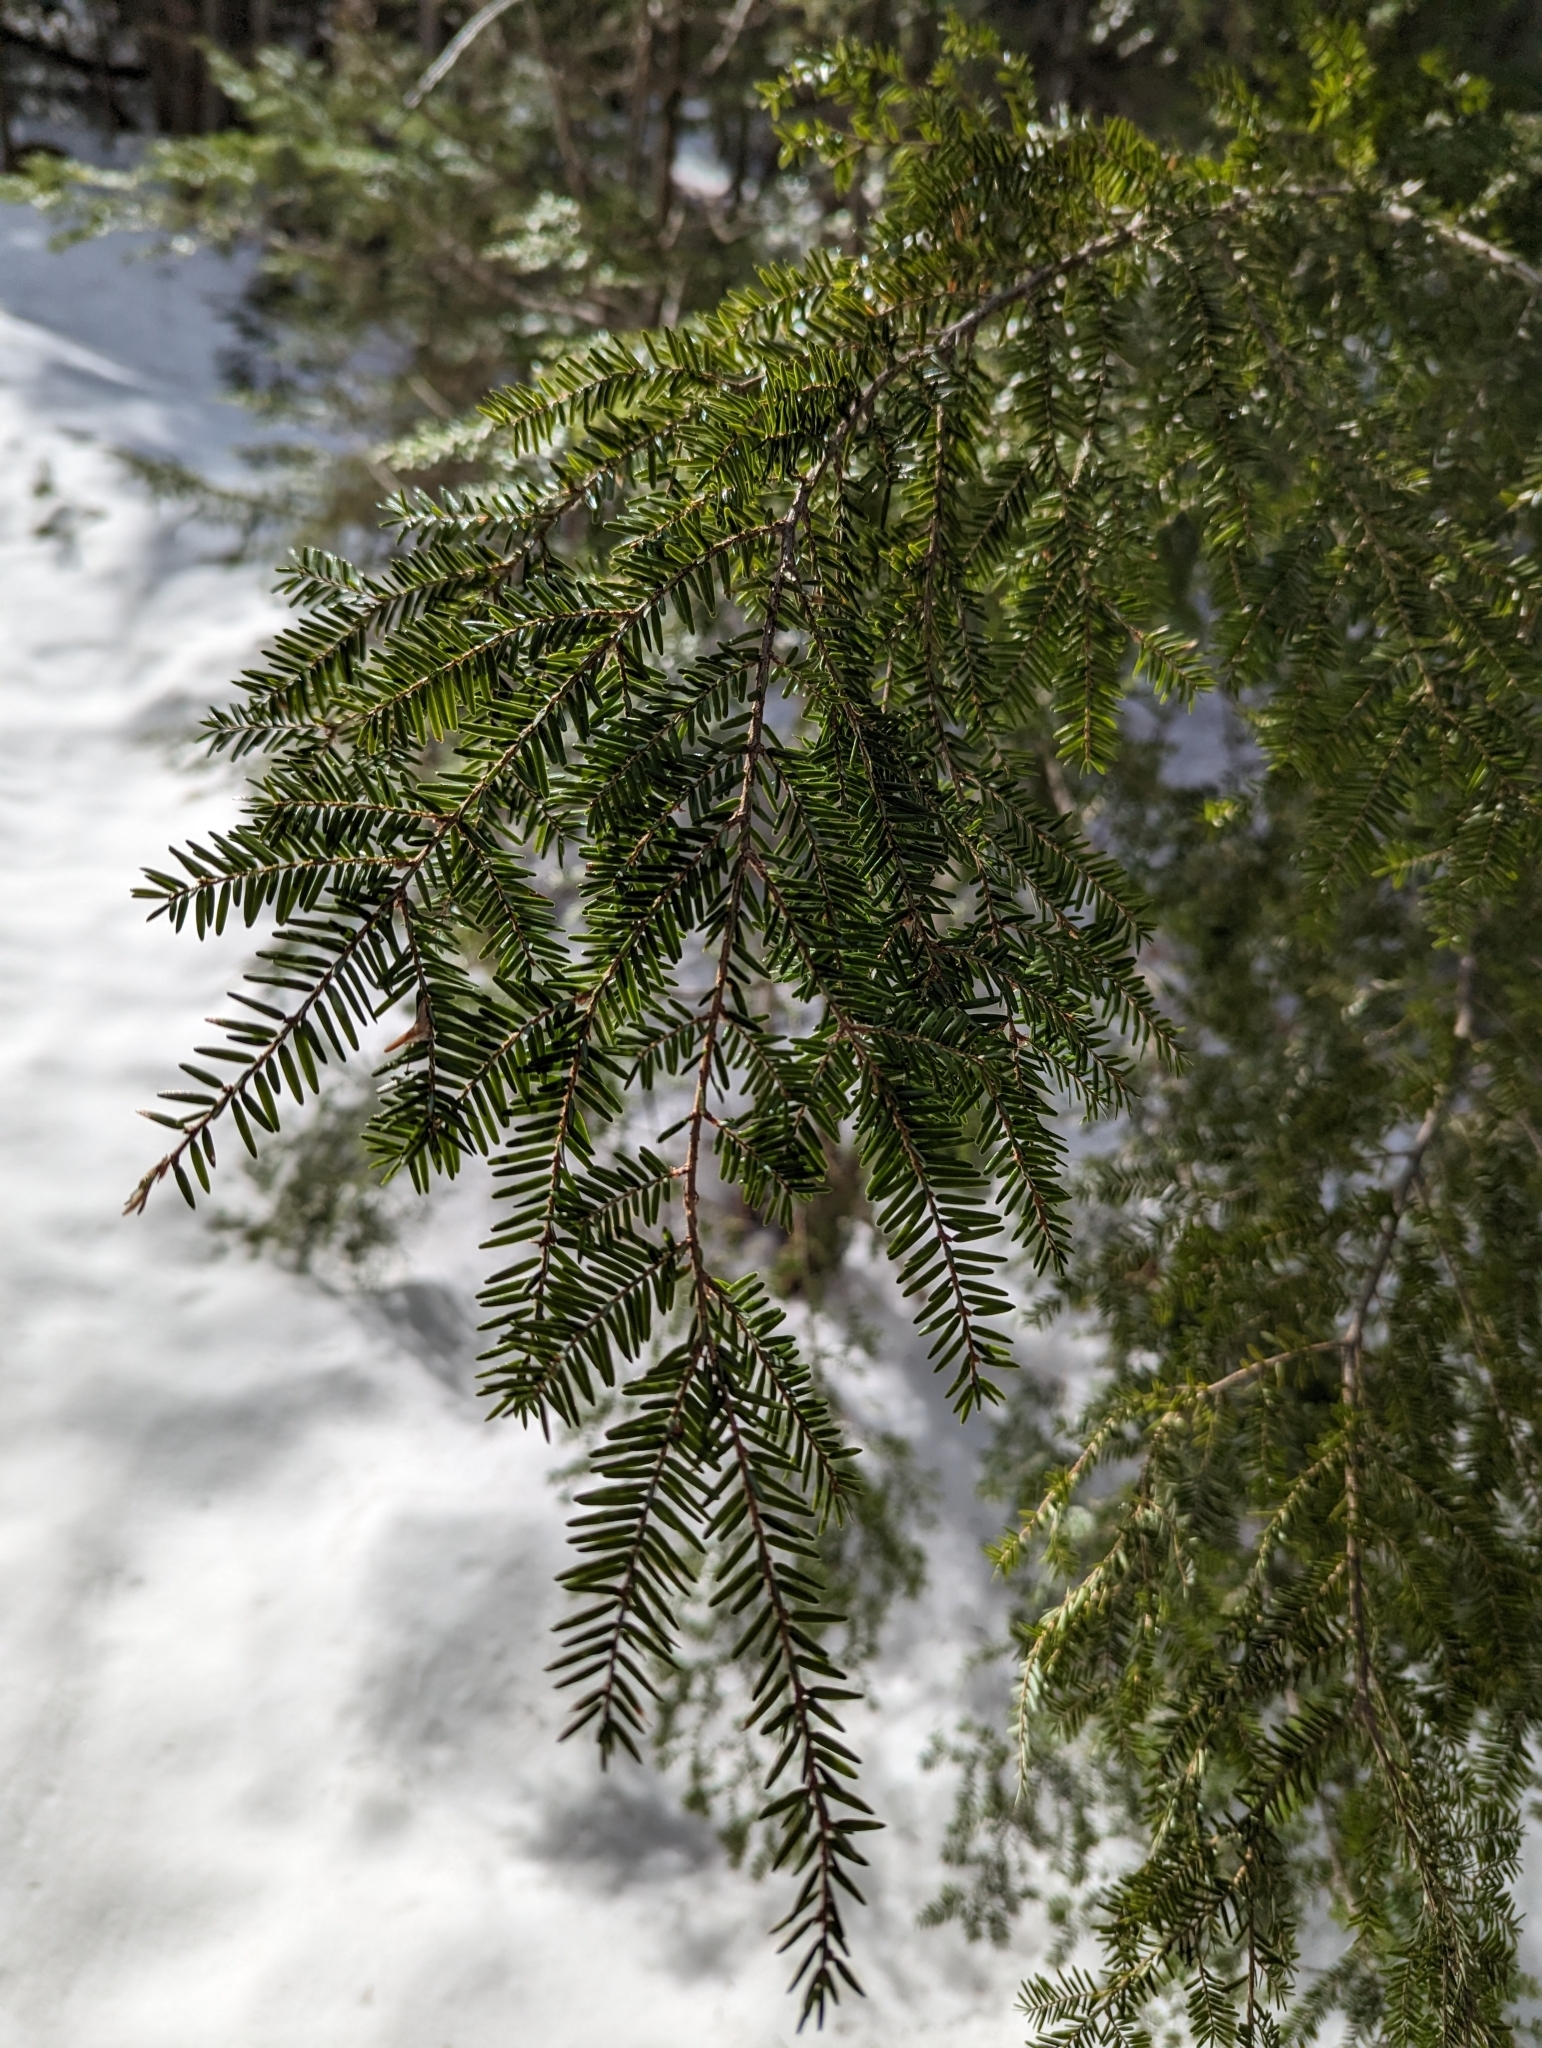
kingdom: Plantae
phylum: Tracheophyta
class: Pinopsida
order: Pinales
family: Pinaceae
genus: Tsuga
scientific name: Tsuga canadensis
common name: Eastern hemlock
